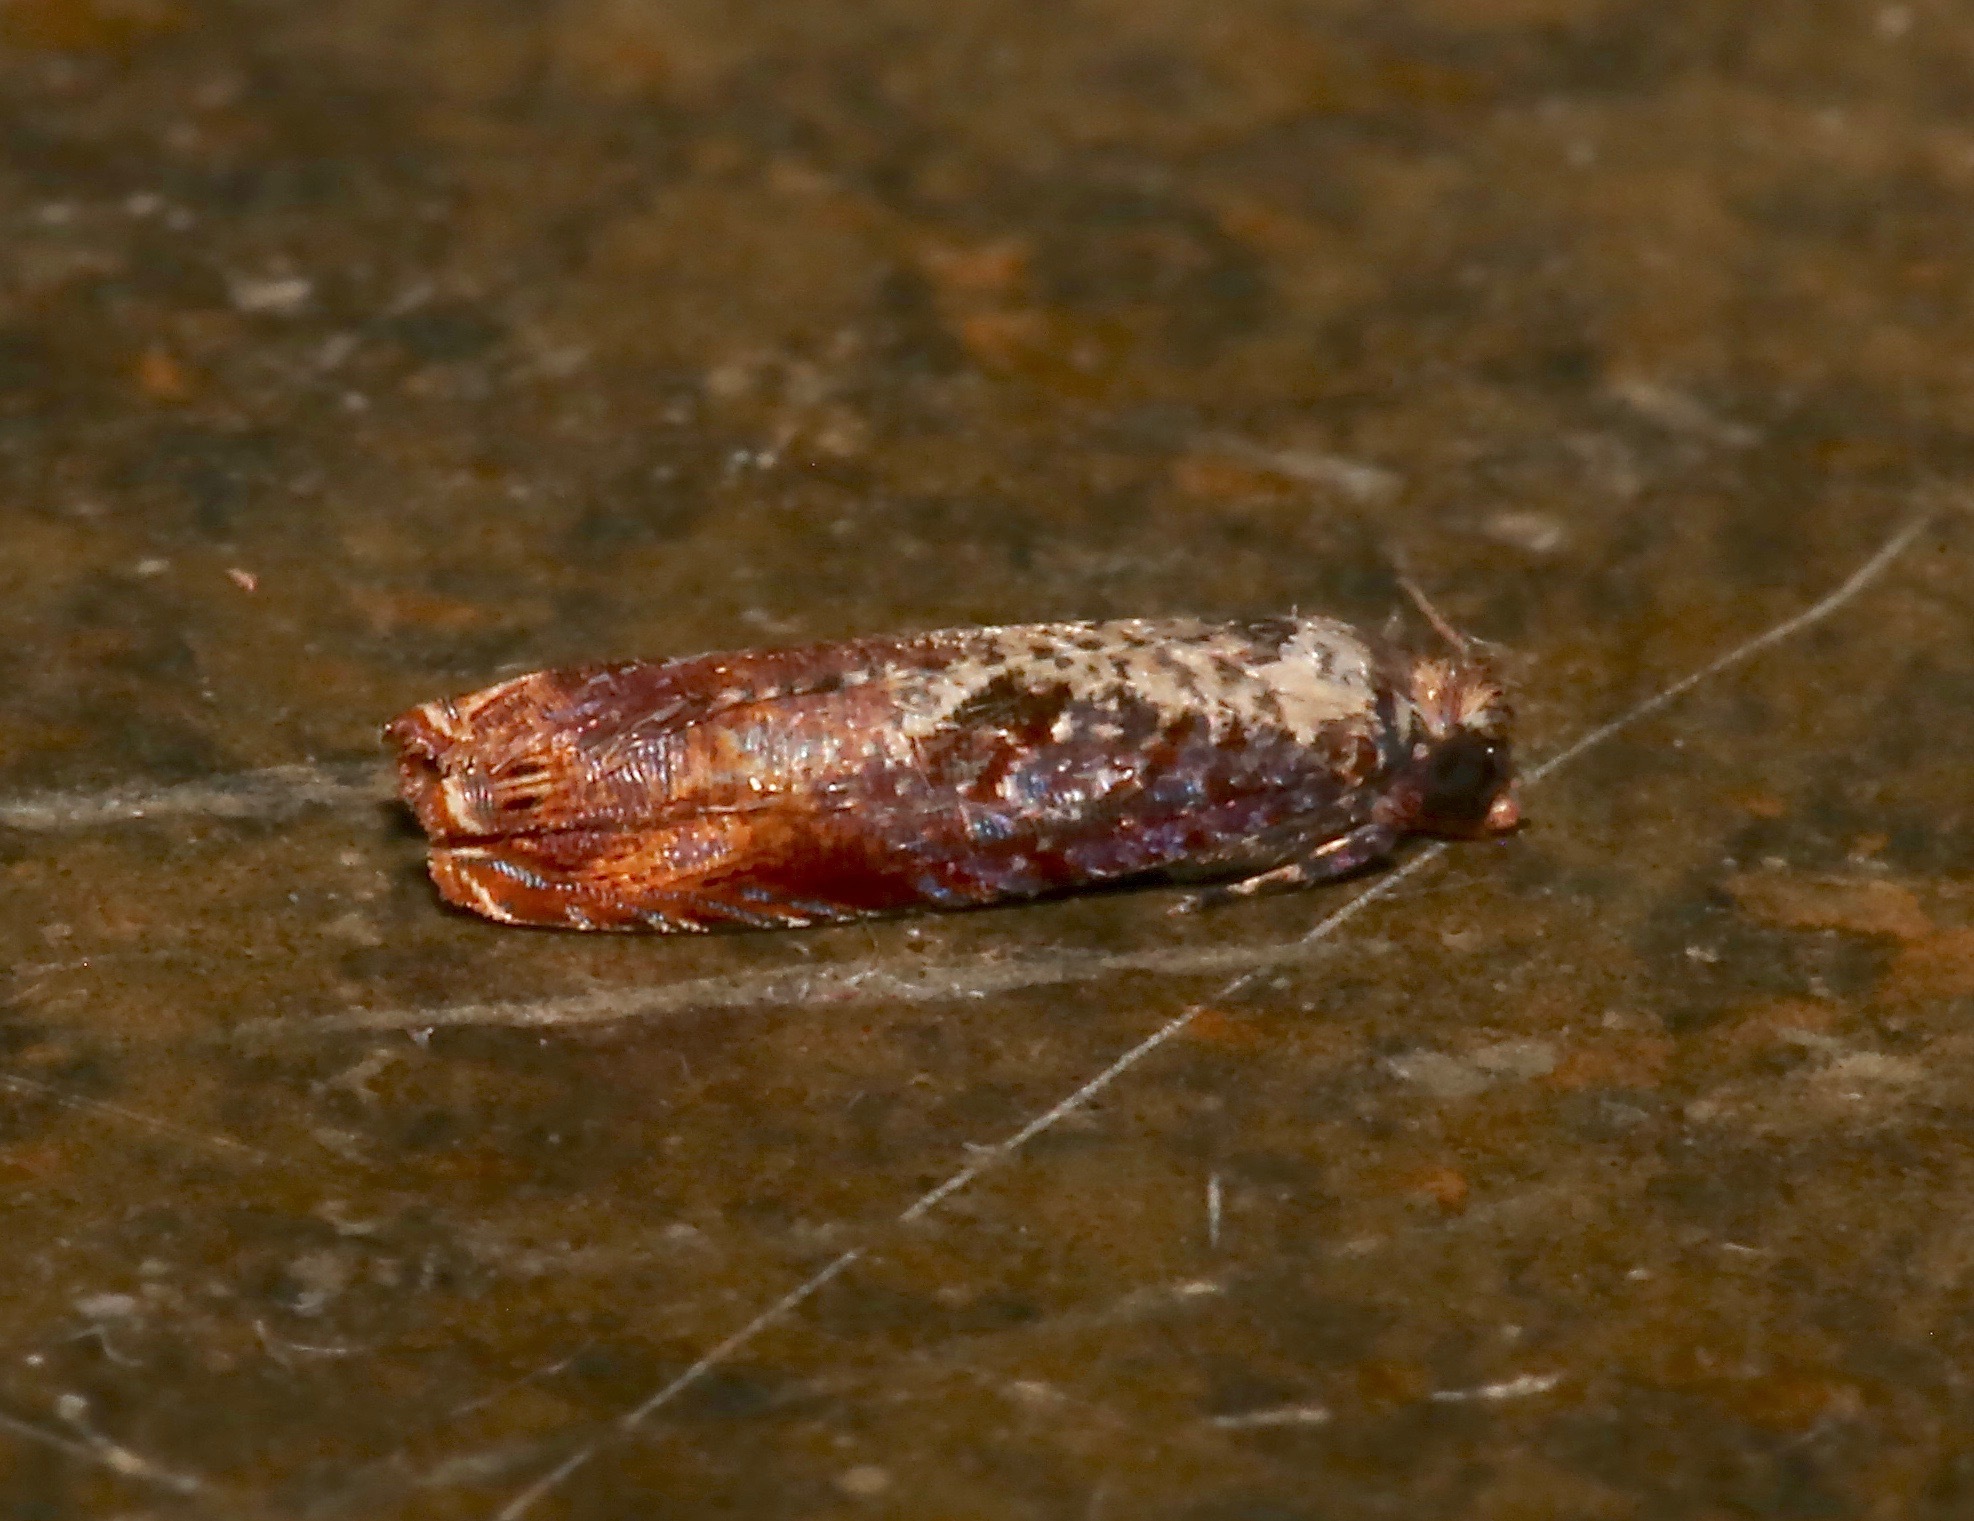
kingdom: Animalia
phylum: Arthropoda
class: Insecta
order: Lepidoptera
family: Tortricidae
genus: Episimus
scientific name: Episimus tyrius
